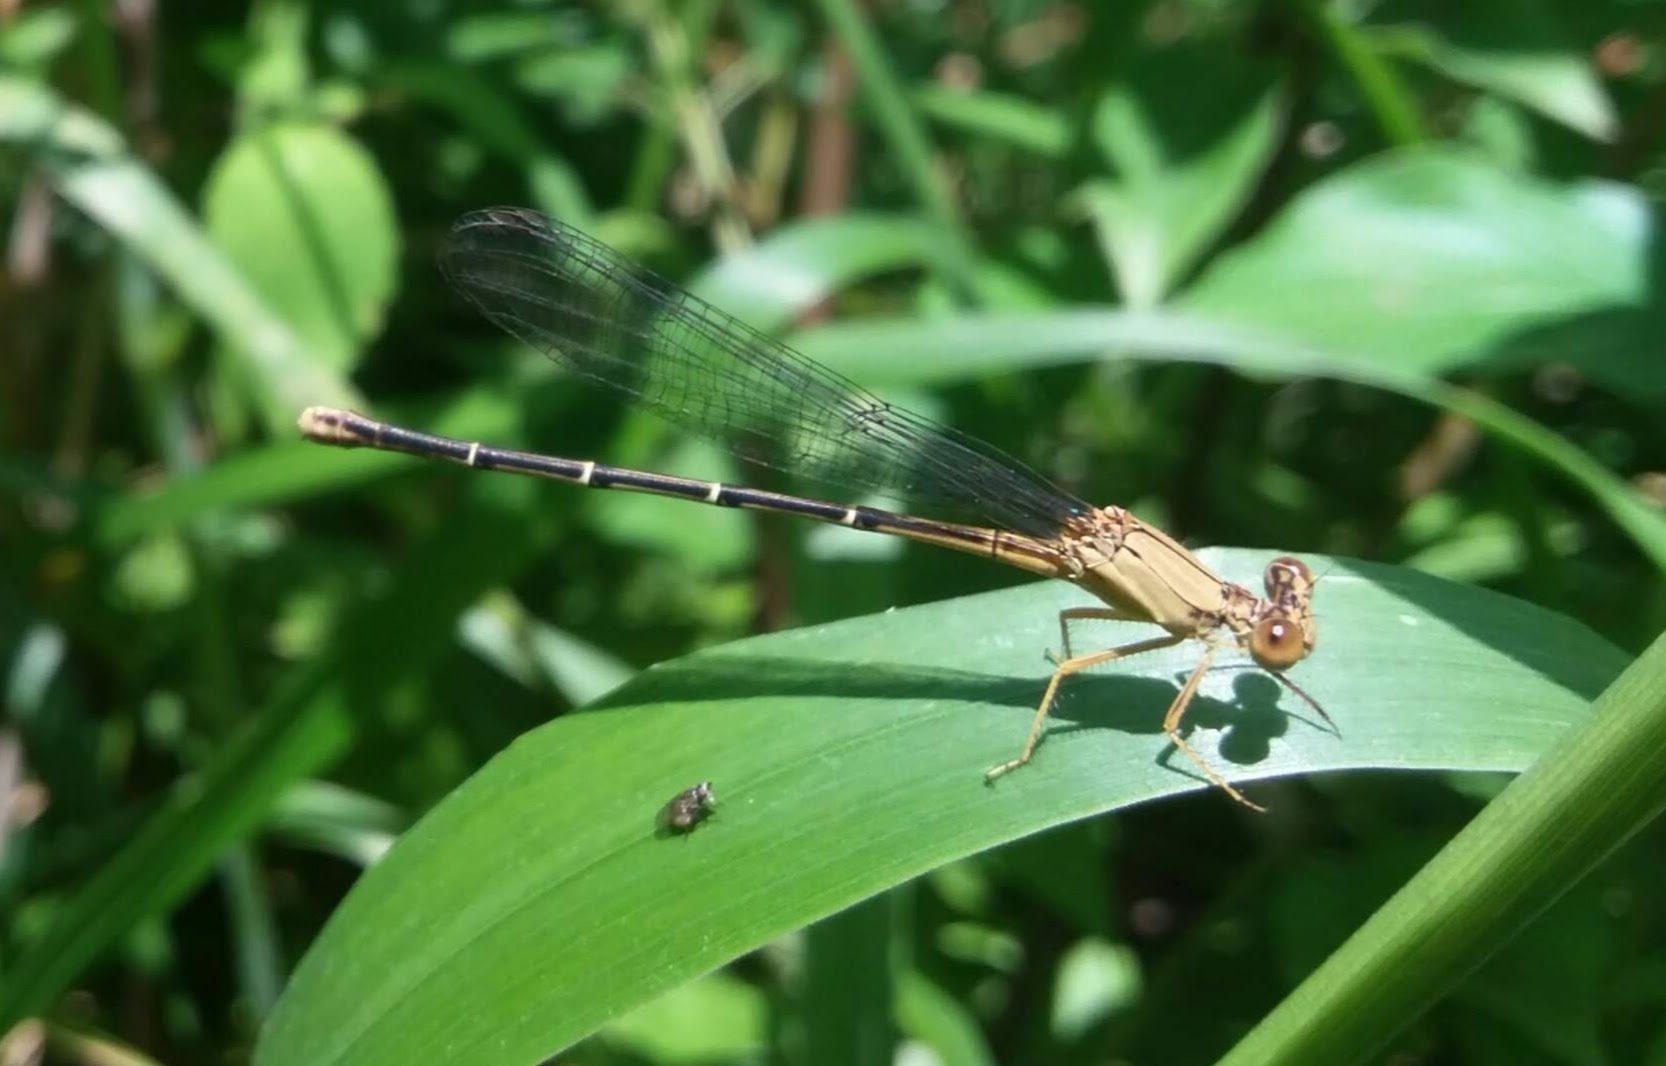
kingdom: Animalia
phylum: Arthropoda
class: Insecta
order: Odonata
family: Coenagrionidae
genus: Argia
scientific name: Argia apicalis
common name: Blue-fronted dancer
